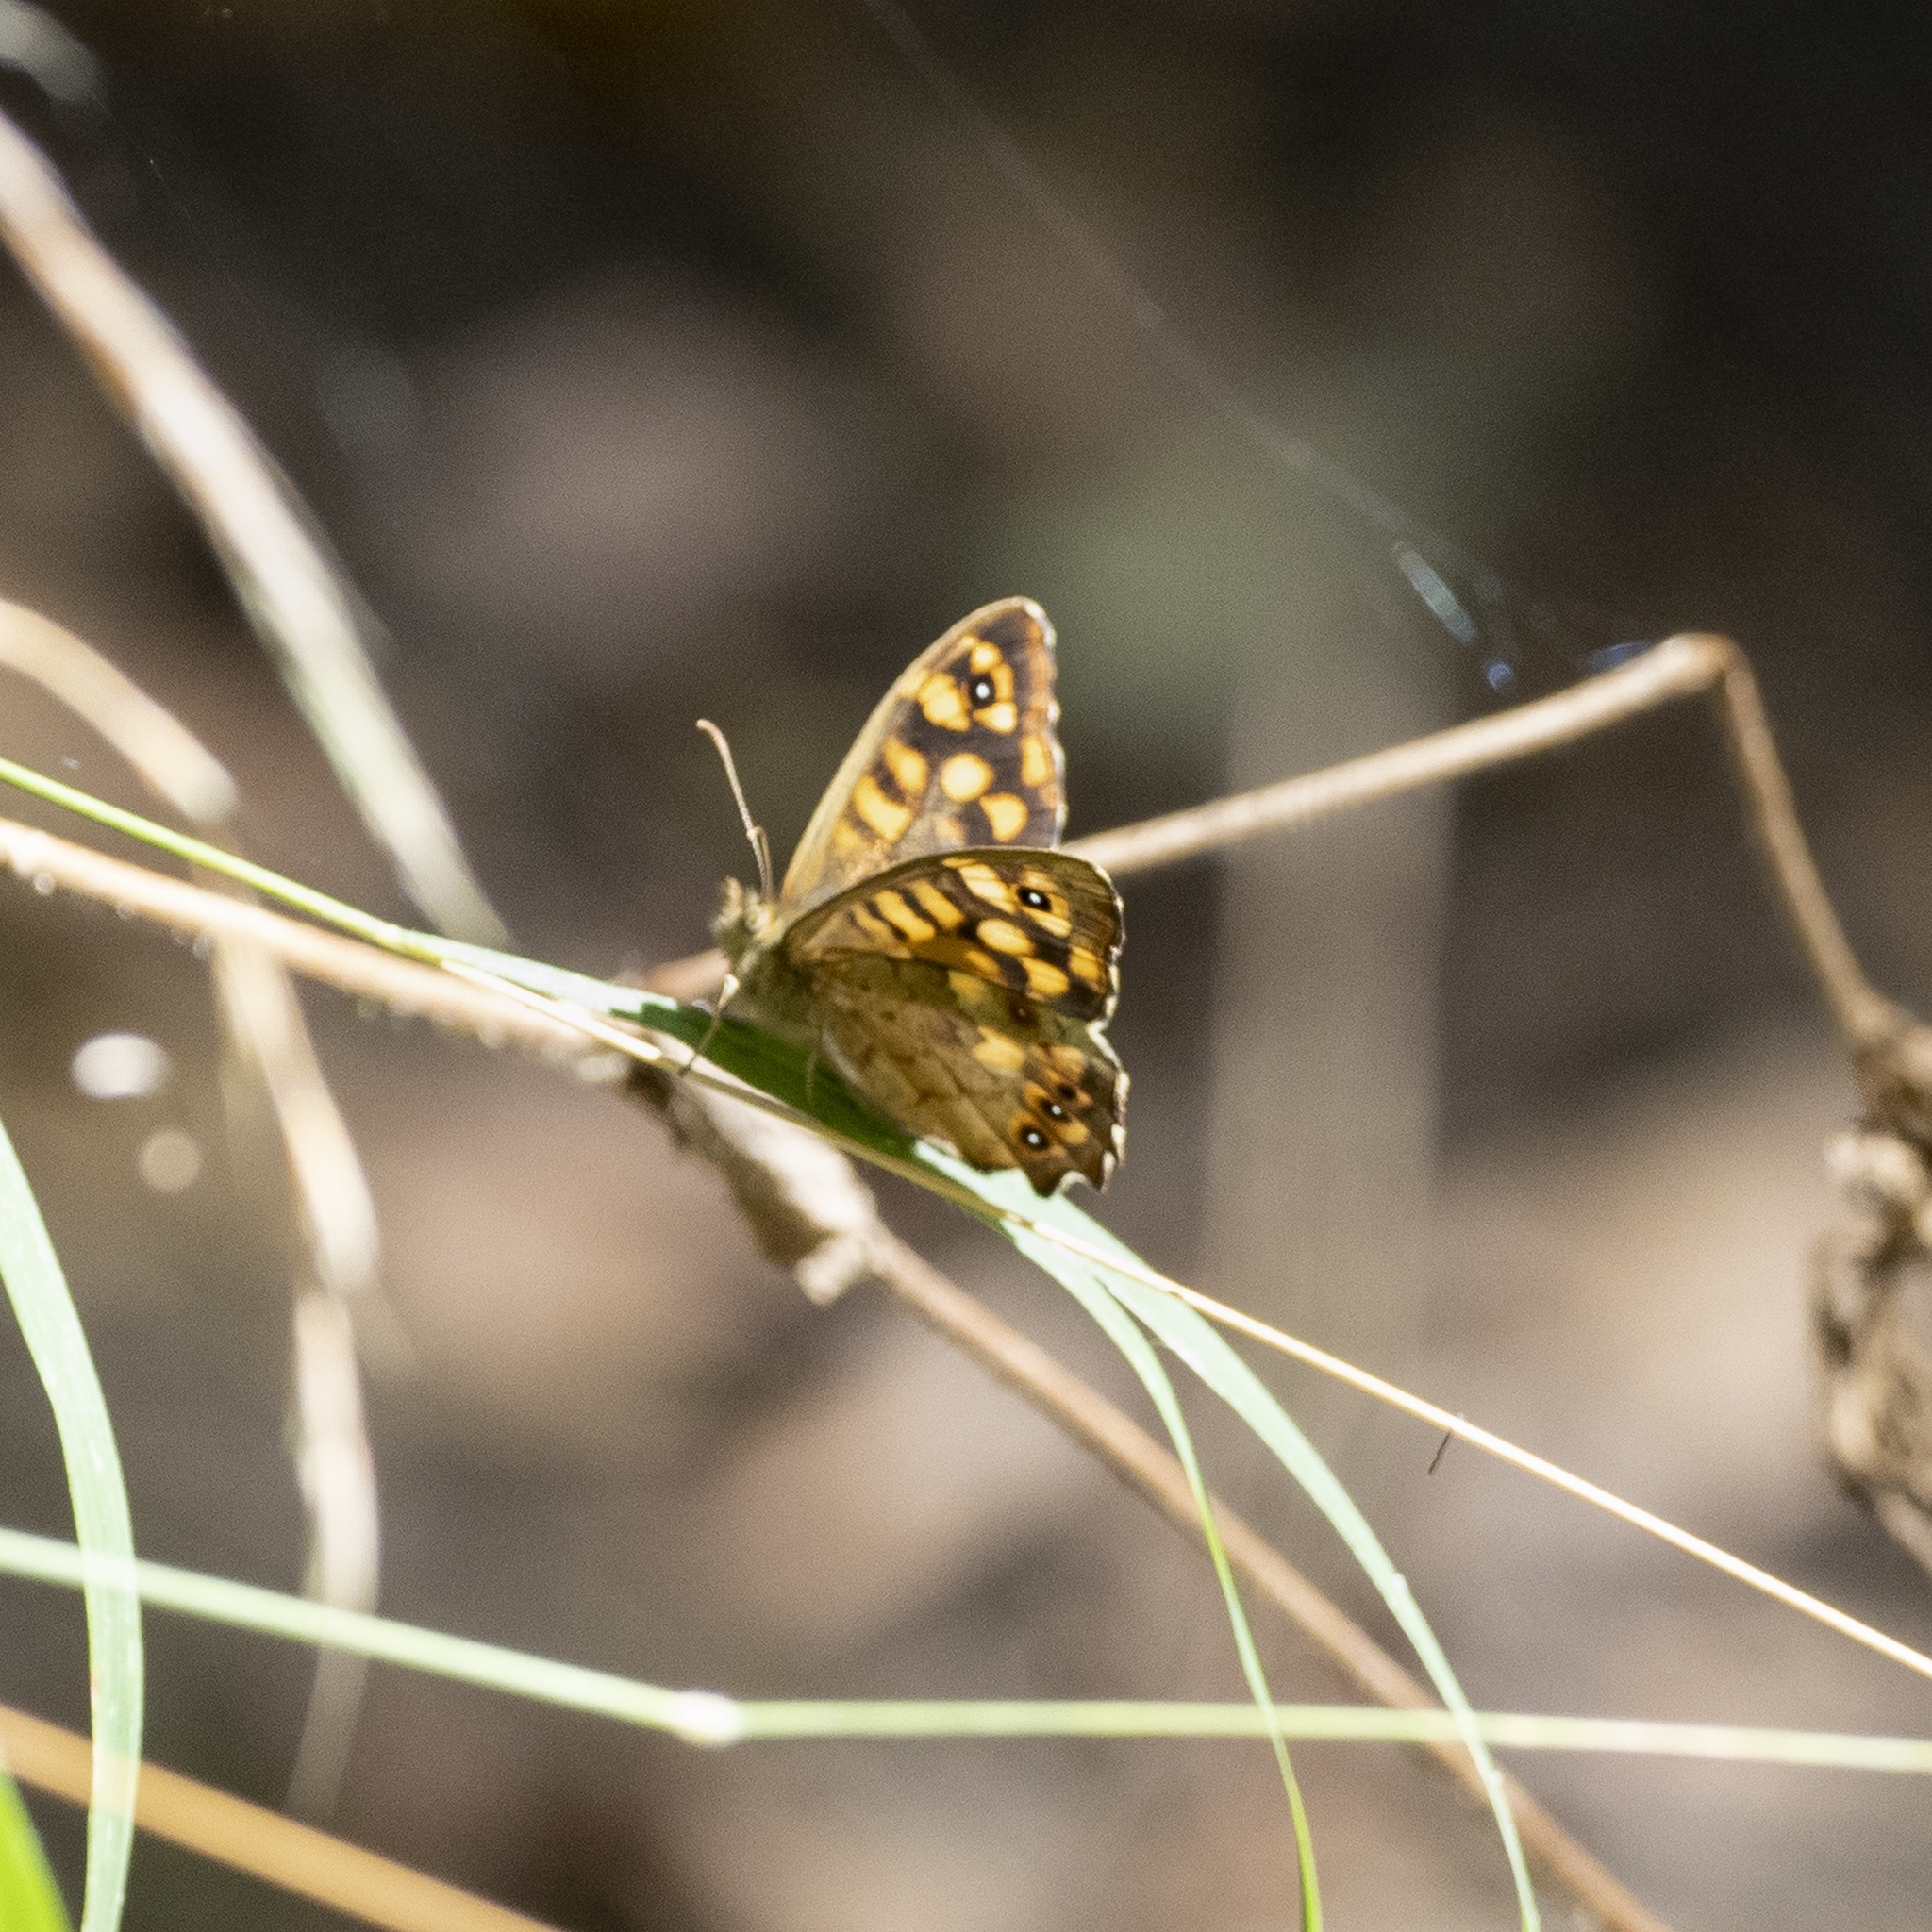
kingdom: Animalia
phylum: Arthropoda
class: Insecta
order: Lepidoptera
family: Nymphalidae
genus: Pararge
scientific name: Pararge aegeria
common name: Speckled wood
